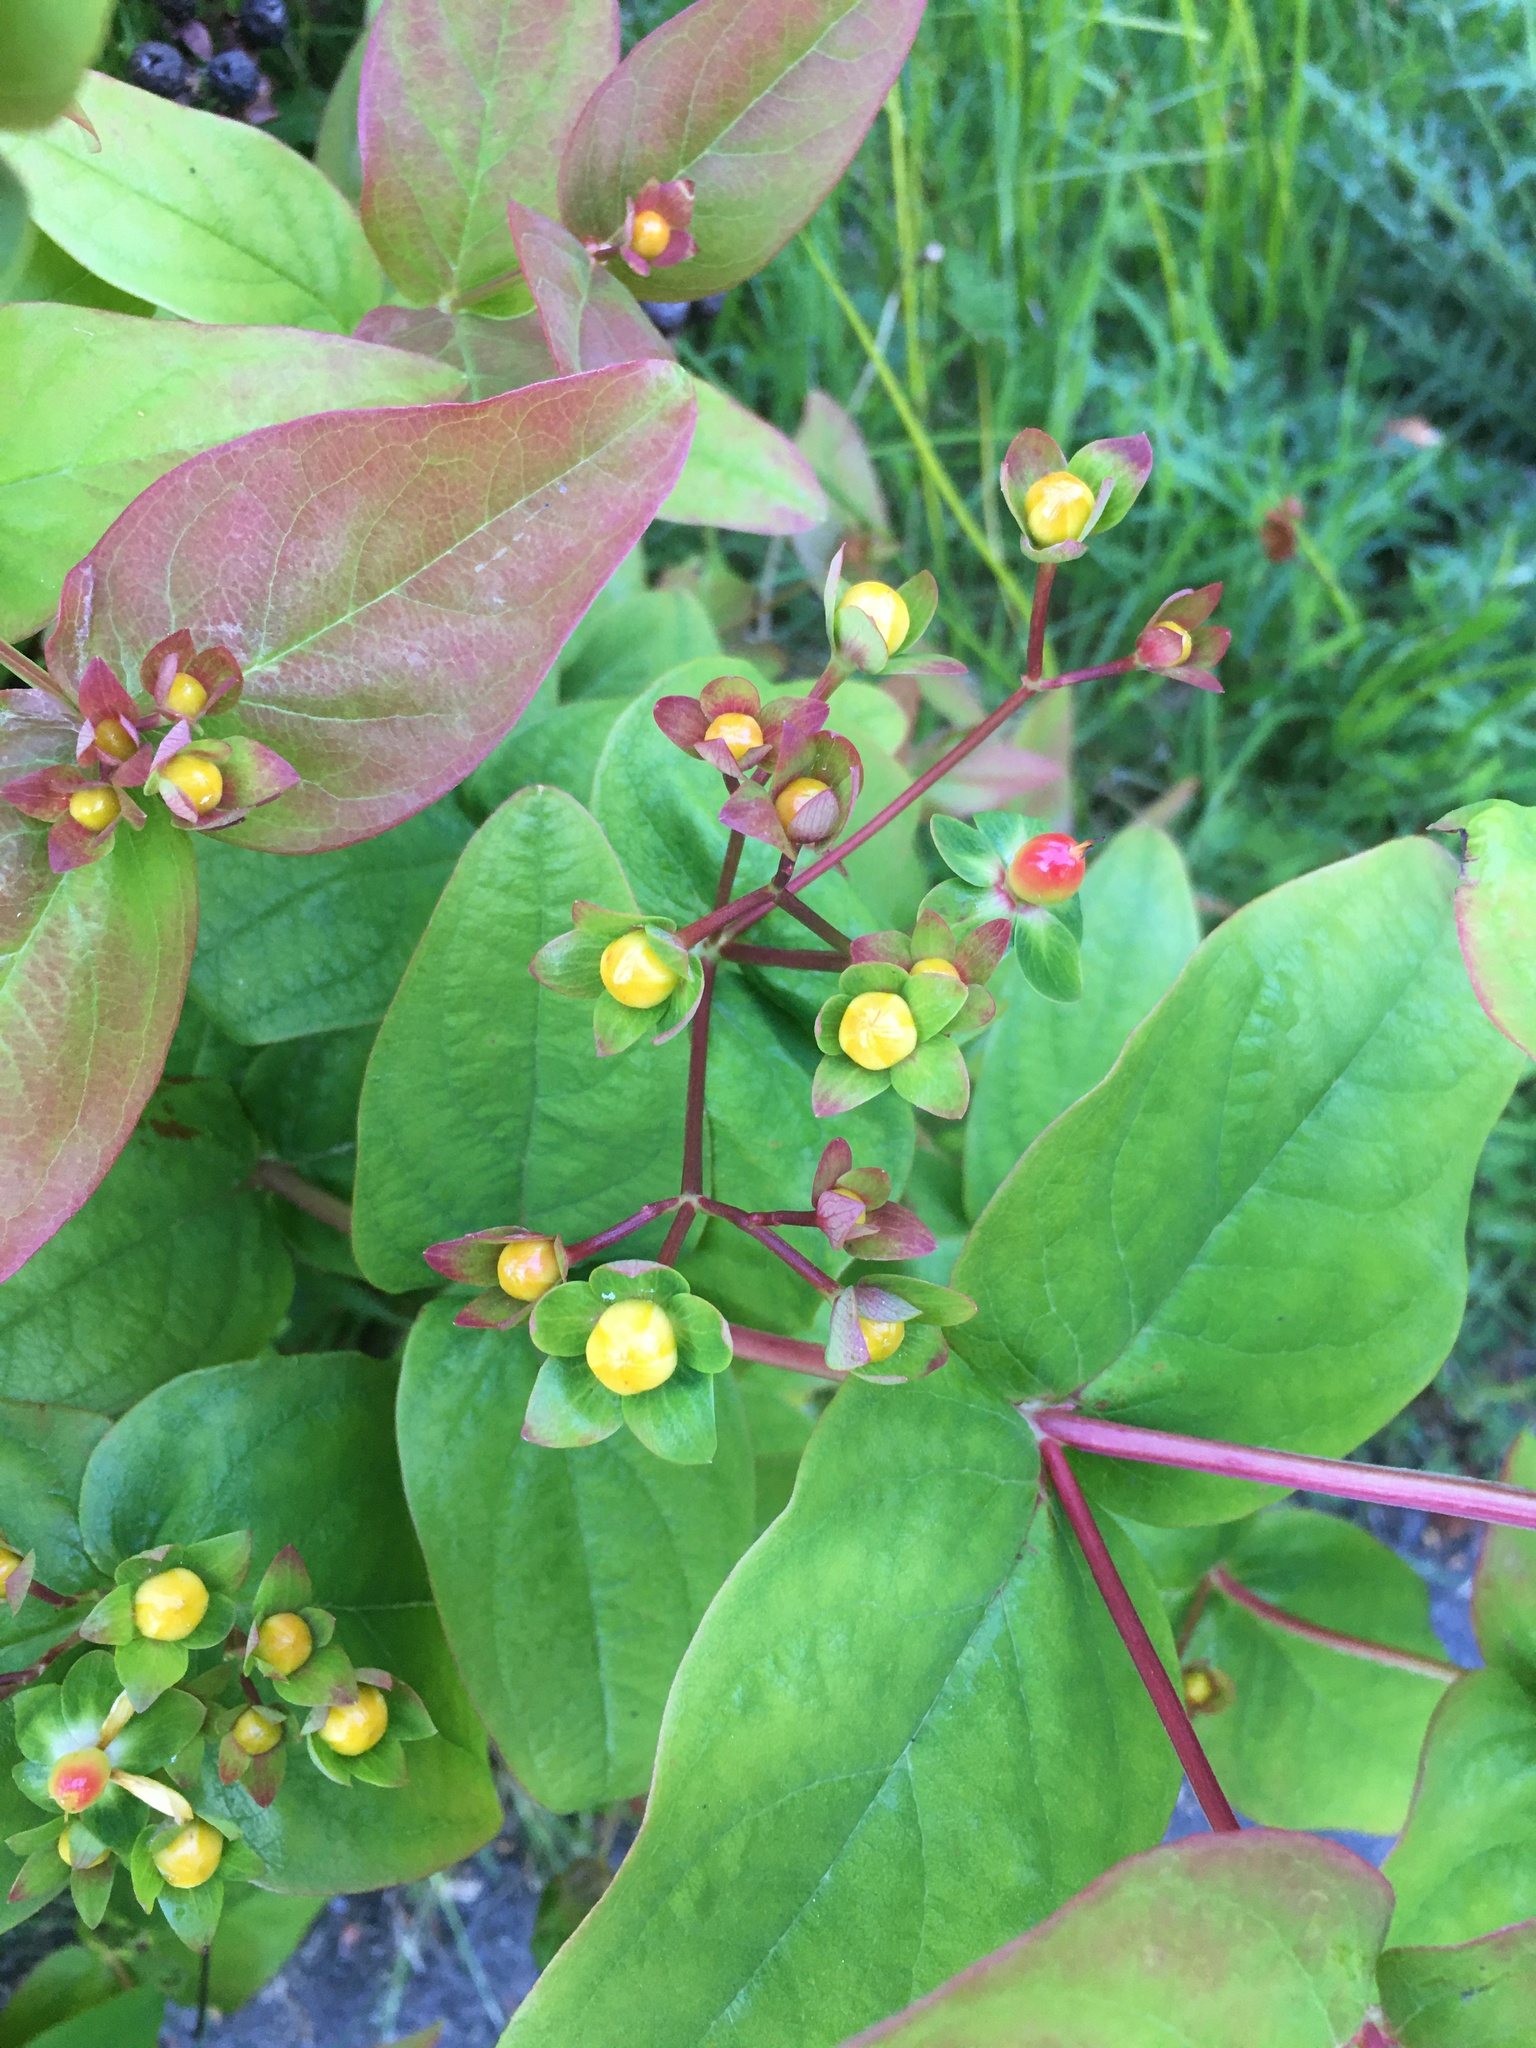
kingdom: Plantae
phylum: Tracheophyta
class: Magnoliopsida
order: Malpighiales
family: Hypericaceae
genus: Hypericum
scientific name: Hypericum androsaemum
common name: Sweet-amber
